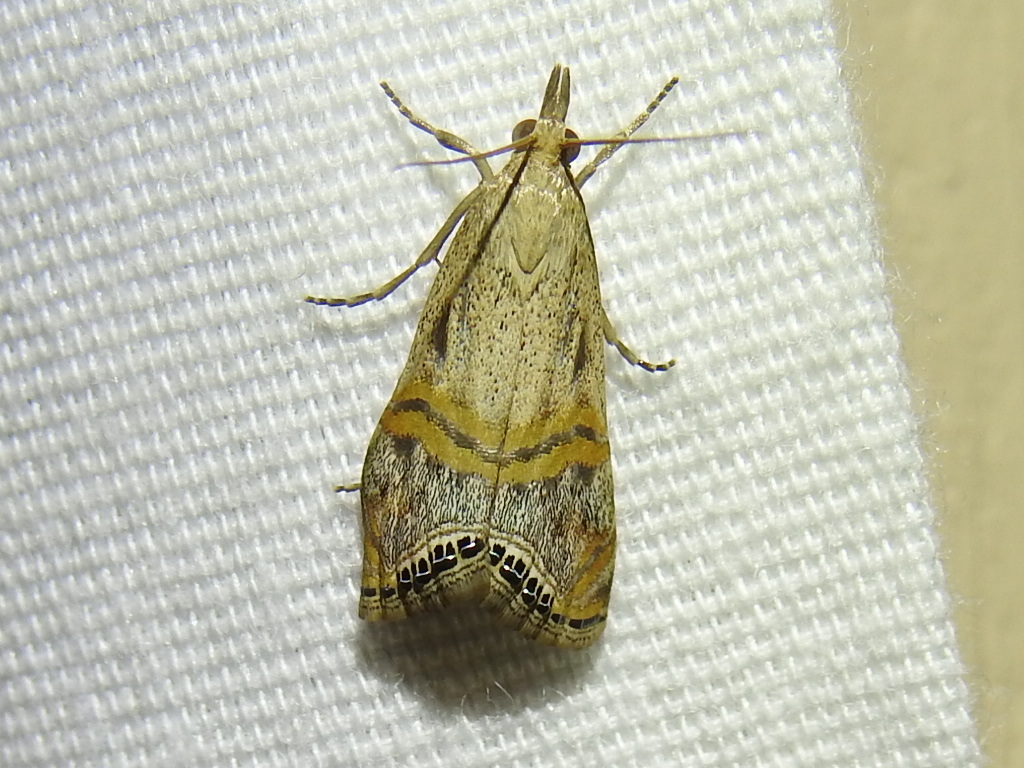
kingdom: Animalia
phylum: Arthropoda
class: Insecta
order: Lepidoptera
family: Crambidae
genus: Euchromius
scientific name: Euchromius ocellea
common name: Necklace veneer moth
